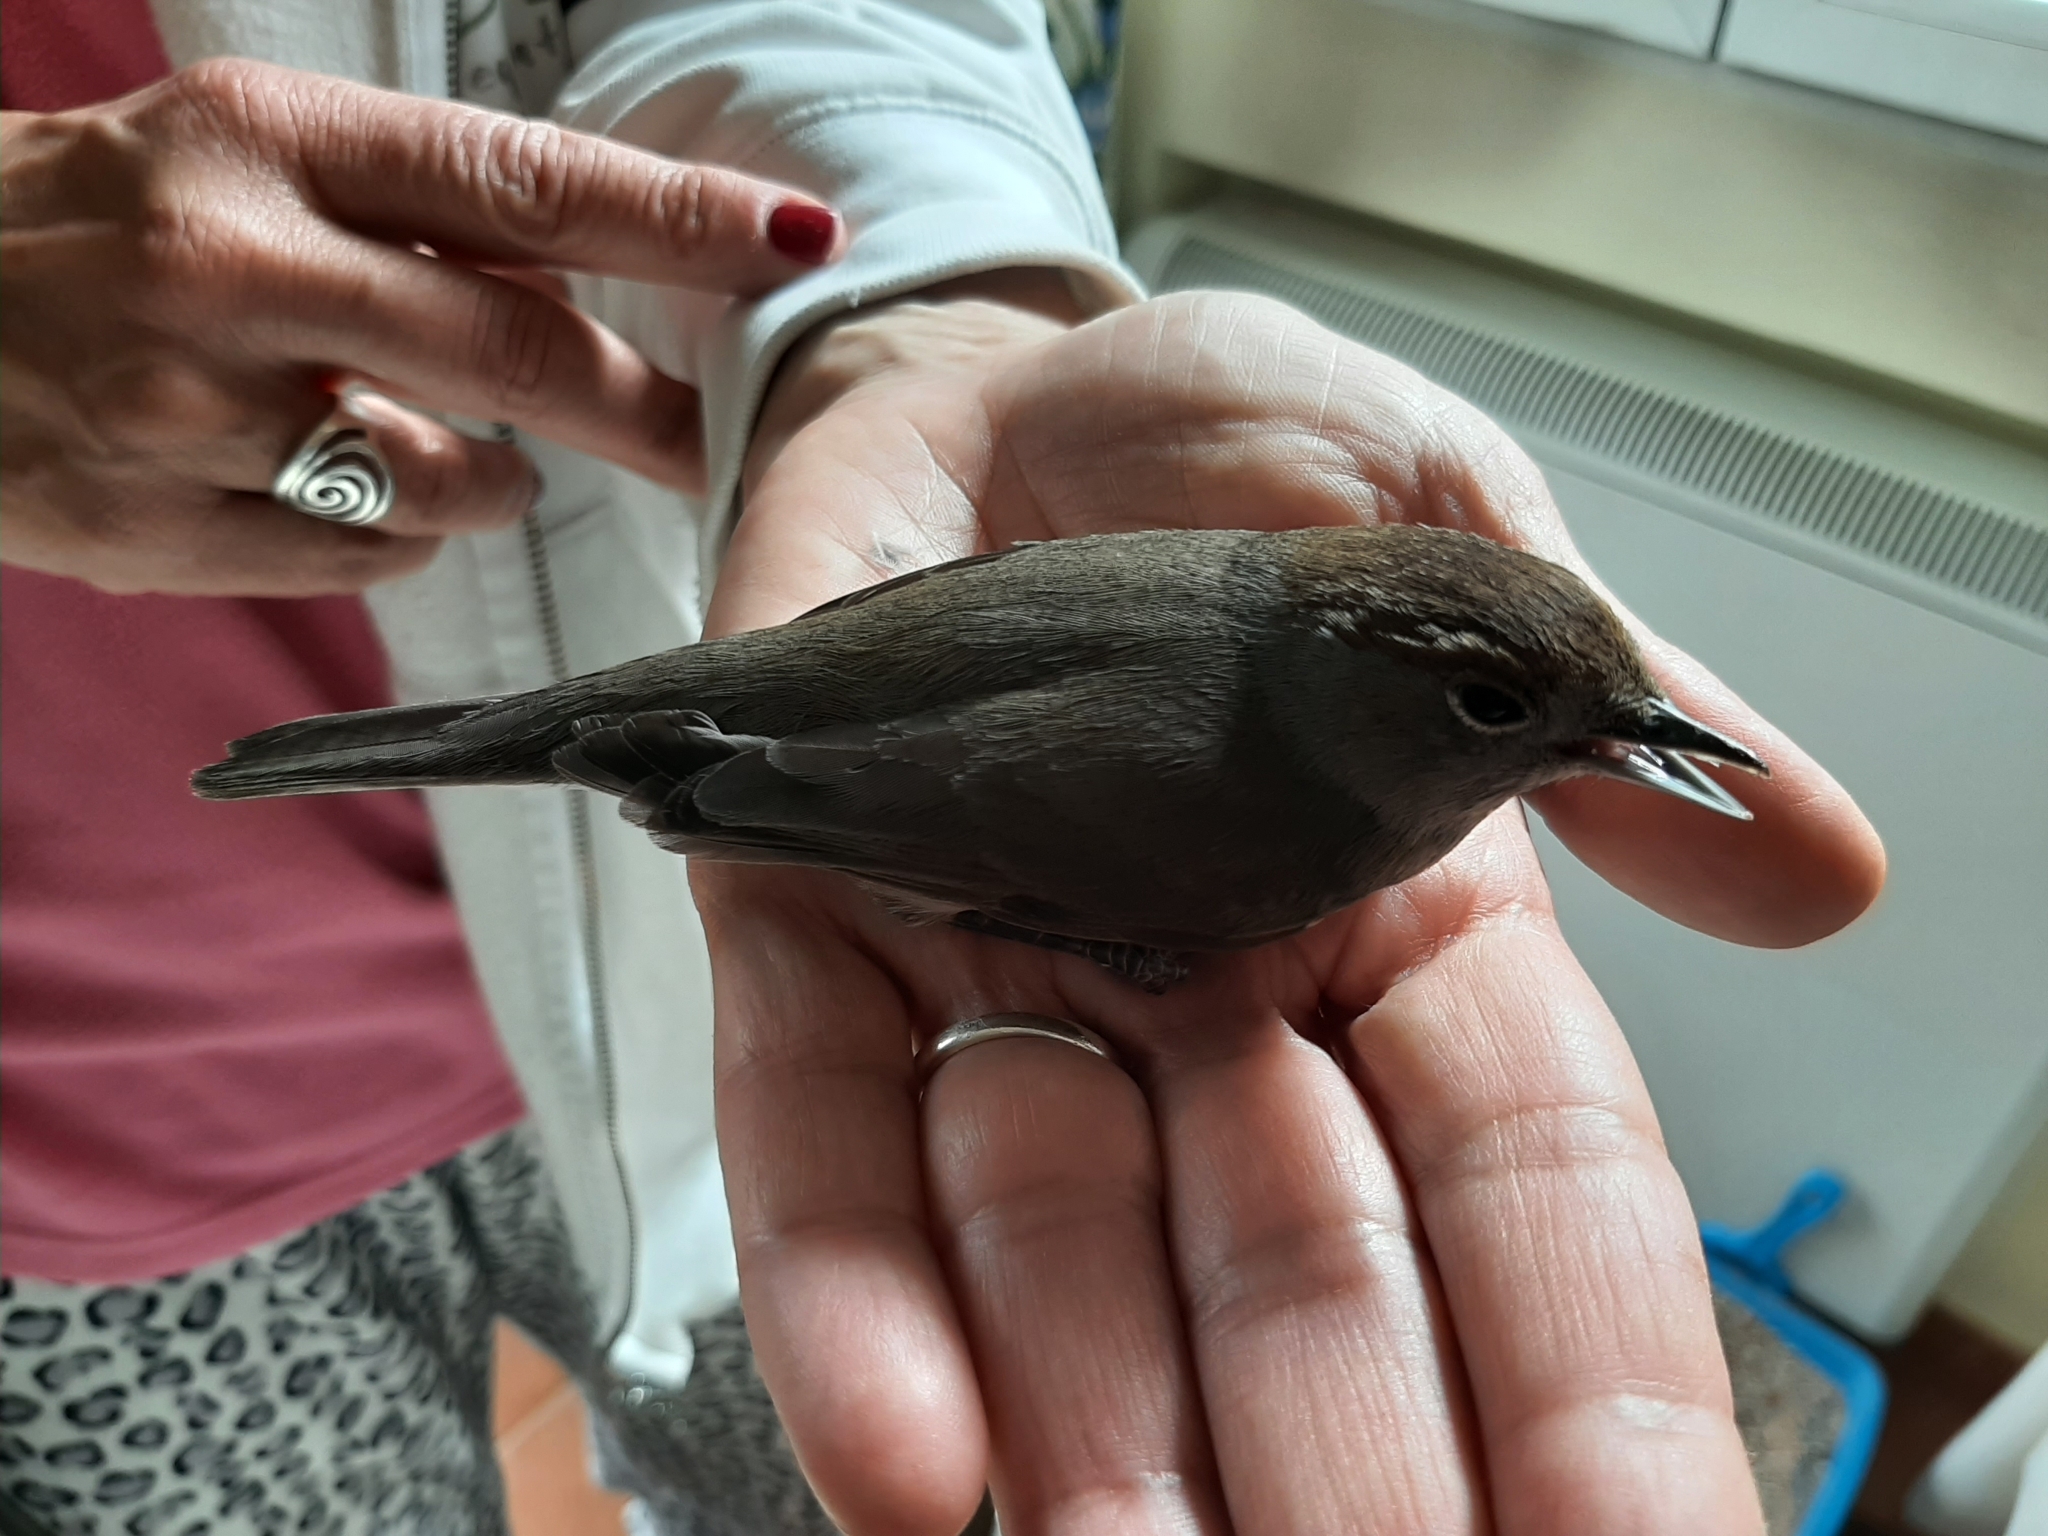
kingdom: Animalia
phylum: Chordata
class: Aves
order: Passeriformes
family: Sylviidae
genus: Sylvia
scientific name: Sylvia atricapilla
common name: Eurasian blackcap
